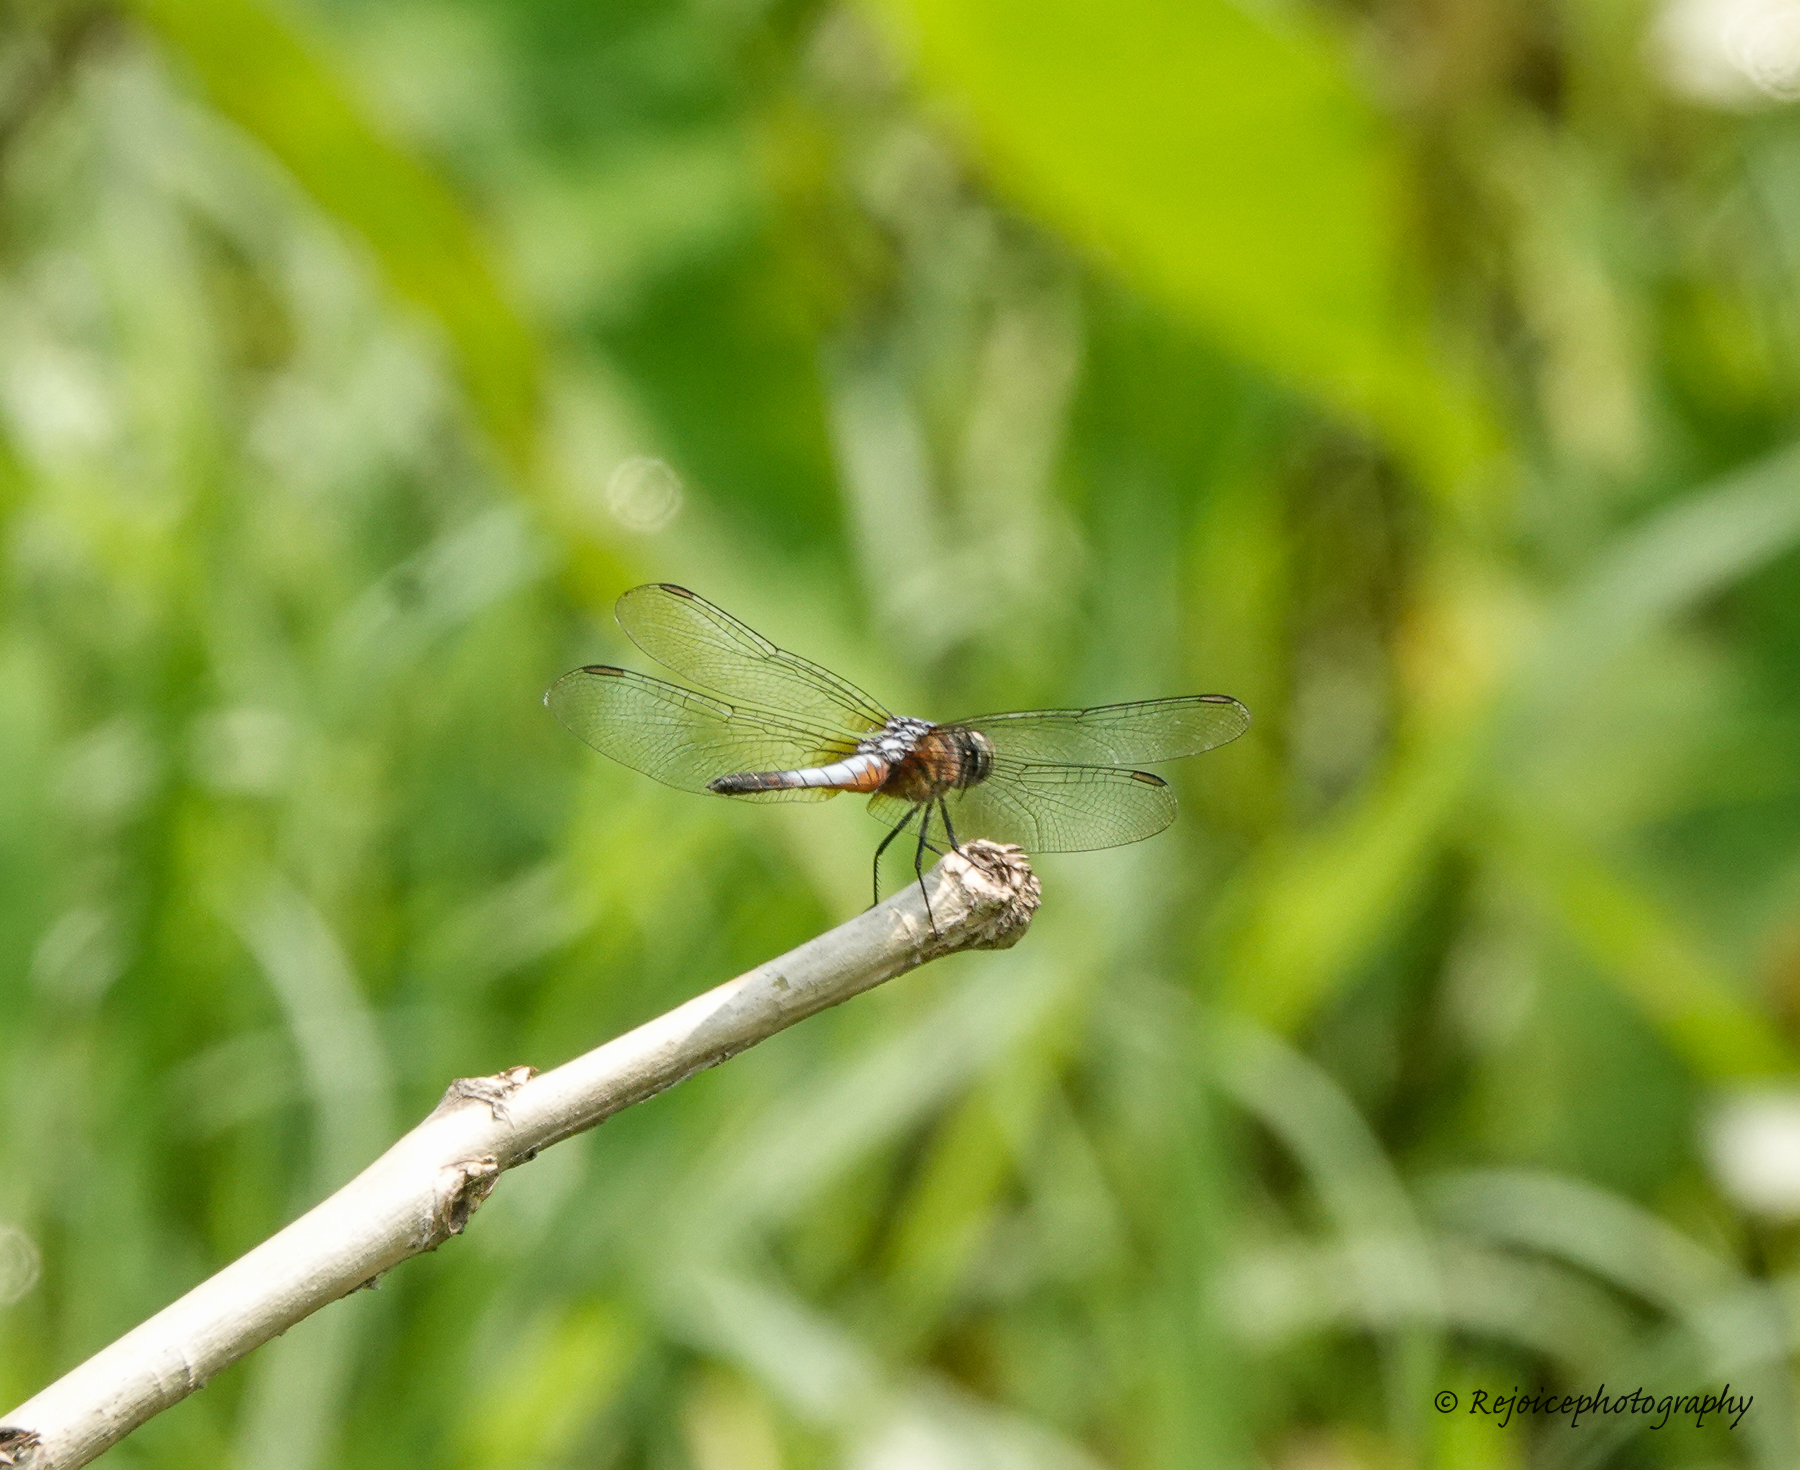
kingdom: Animalia
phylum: Arthropoda
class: Insecta
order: Odonata
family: Libellulidae
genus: Brachydiplax
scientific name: Brachydiplax chalybea
